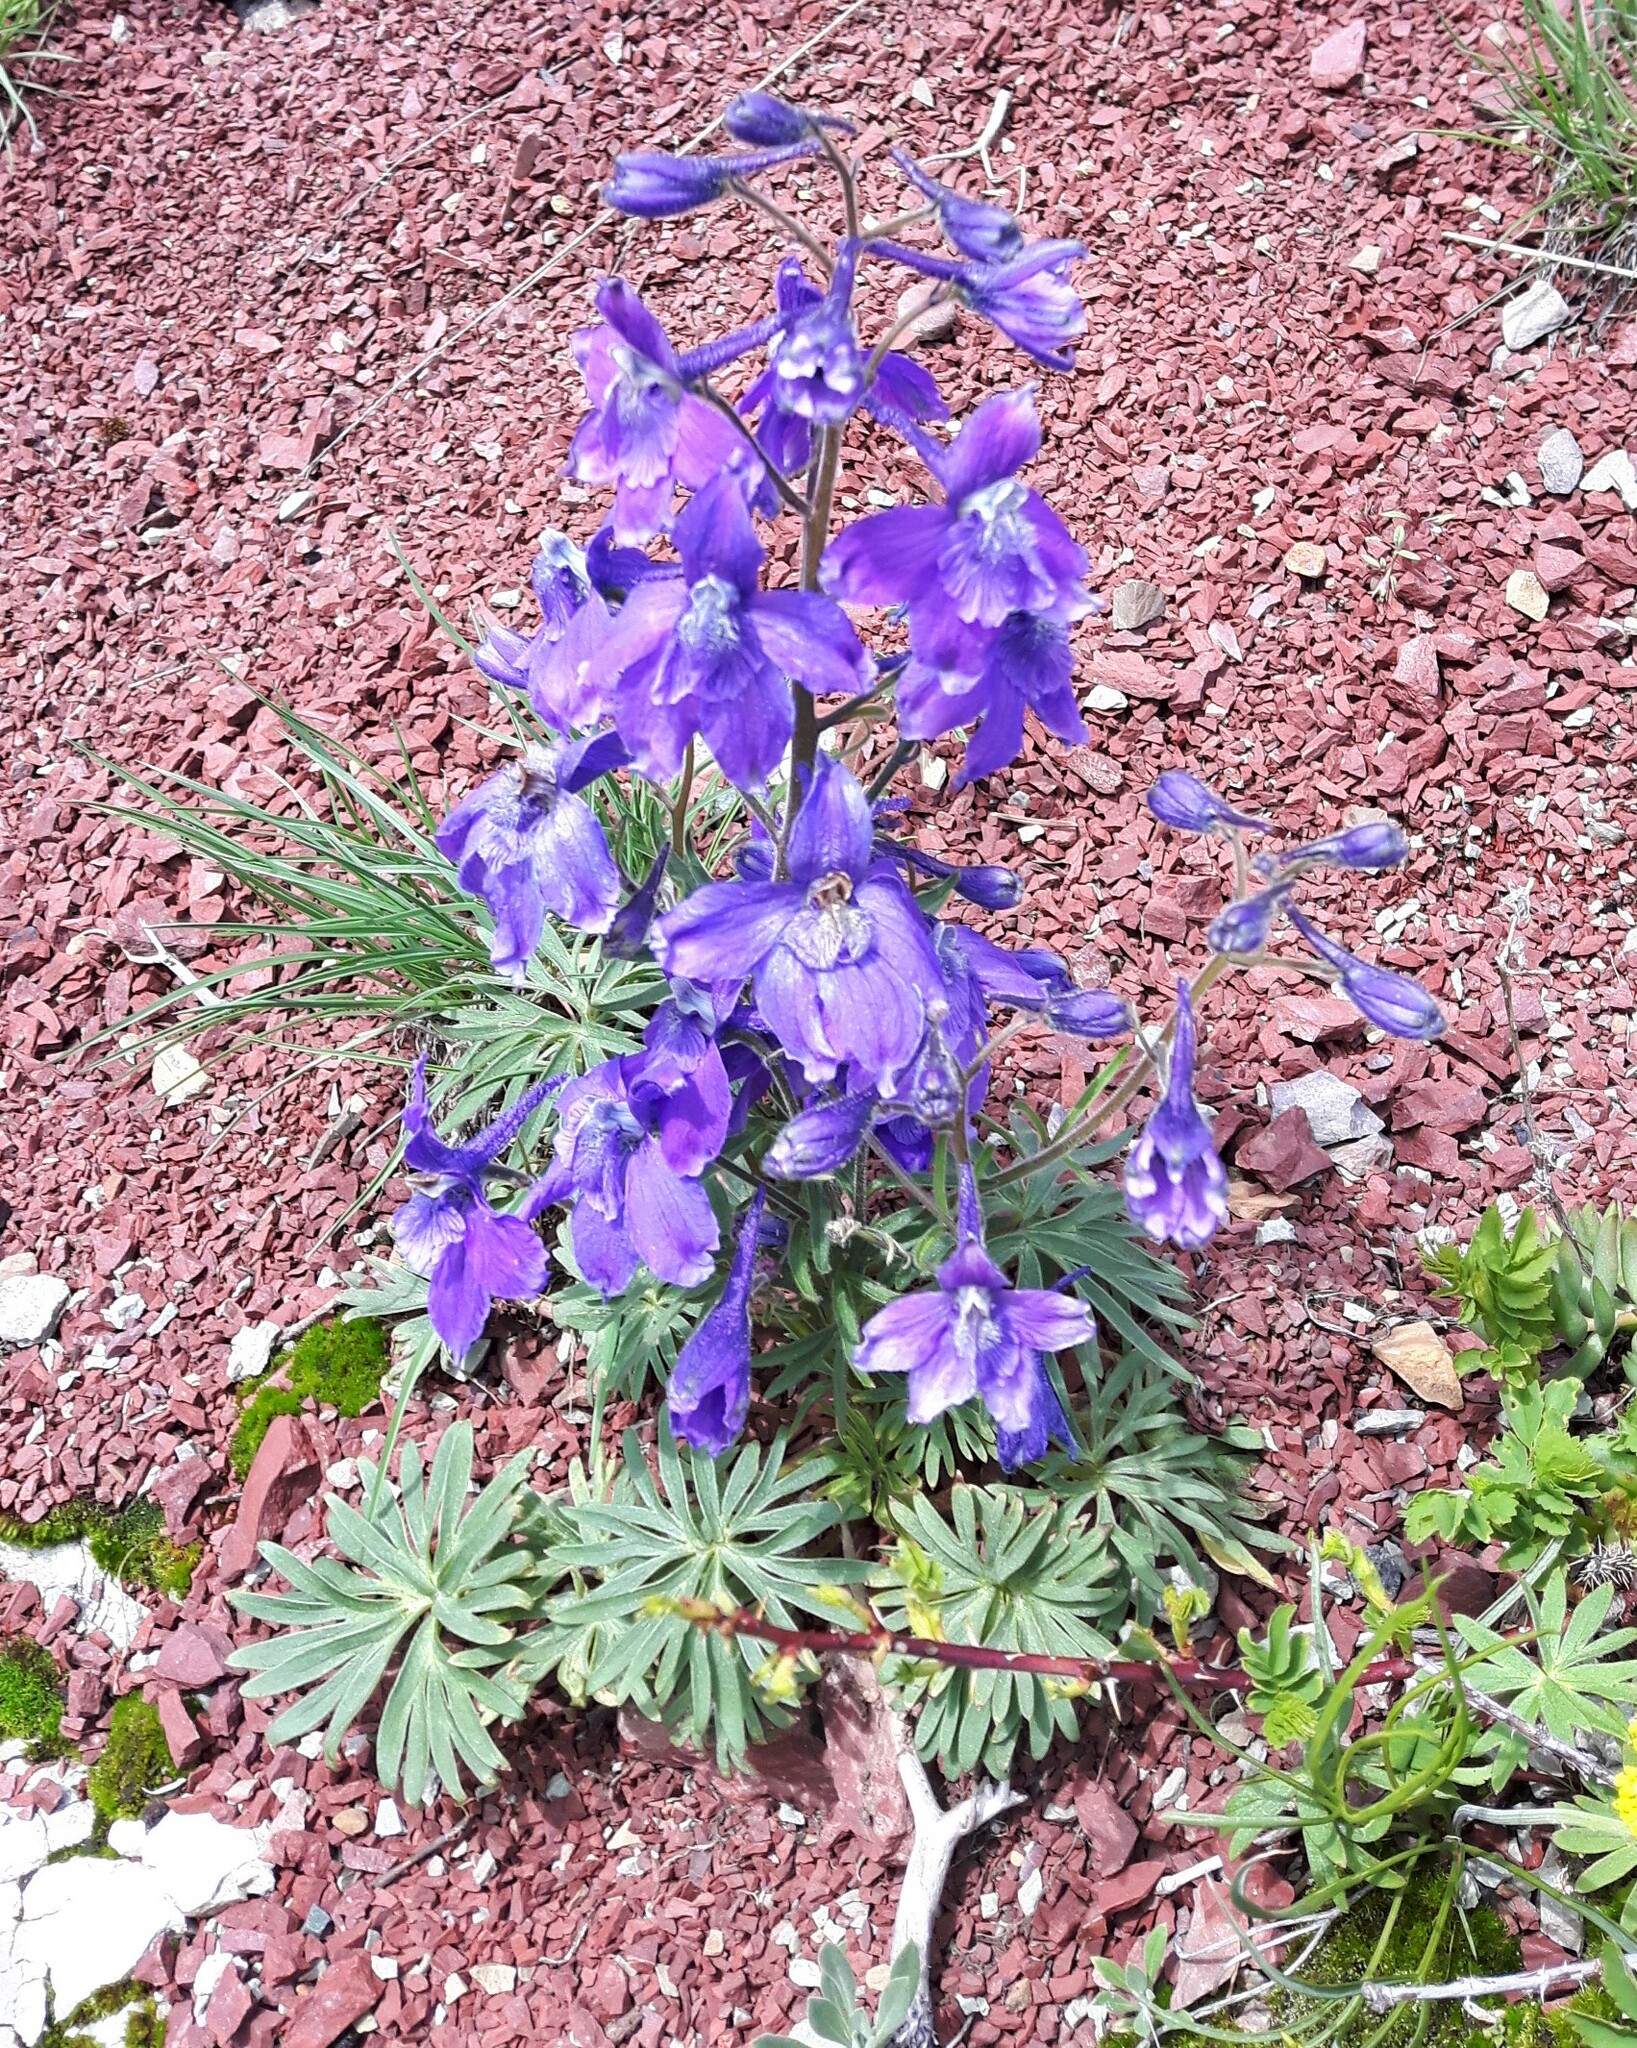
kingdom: Plantae
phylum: Tracheophyta
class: Magnoliopsida
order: Ranunculales
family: Ranunculaceae
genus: Delphinium
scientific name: Delphinium bicolor
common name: Low larkspur
